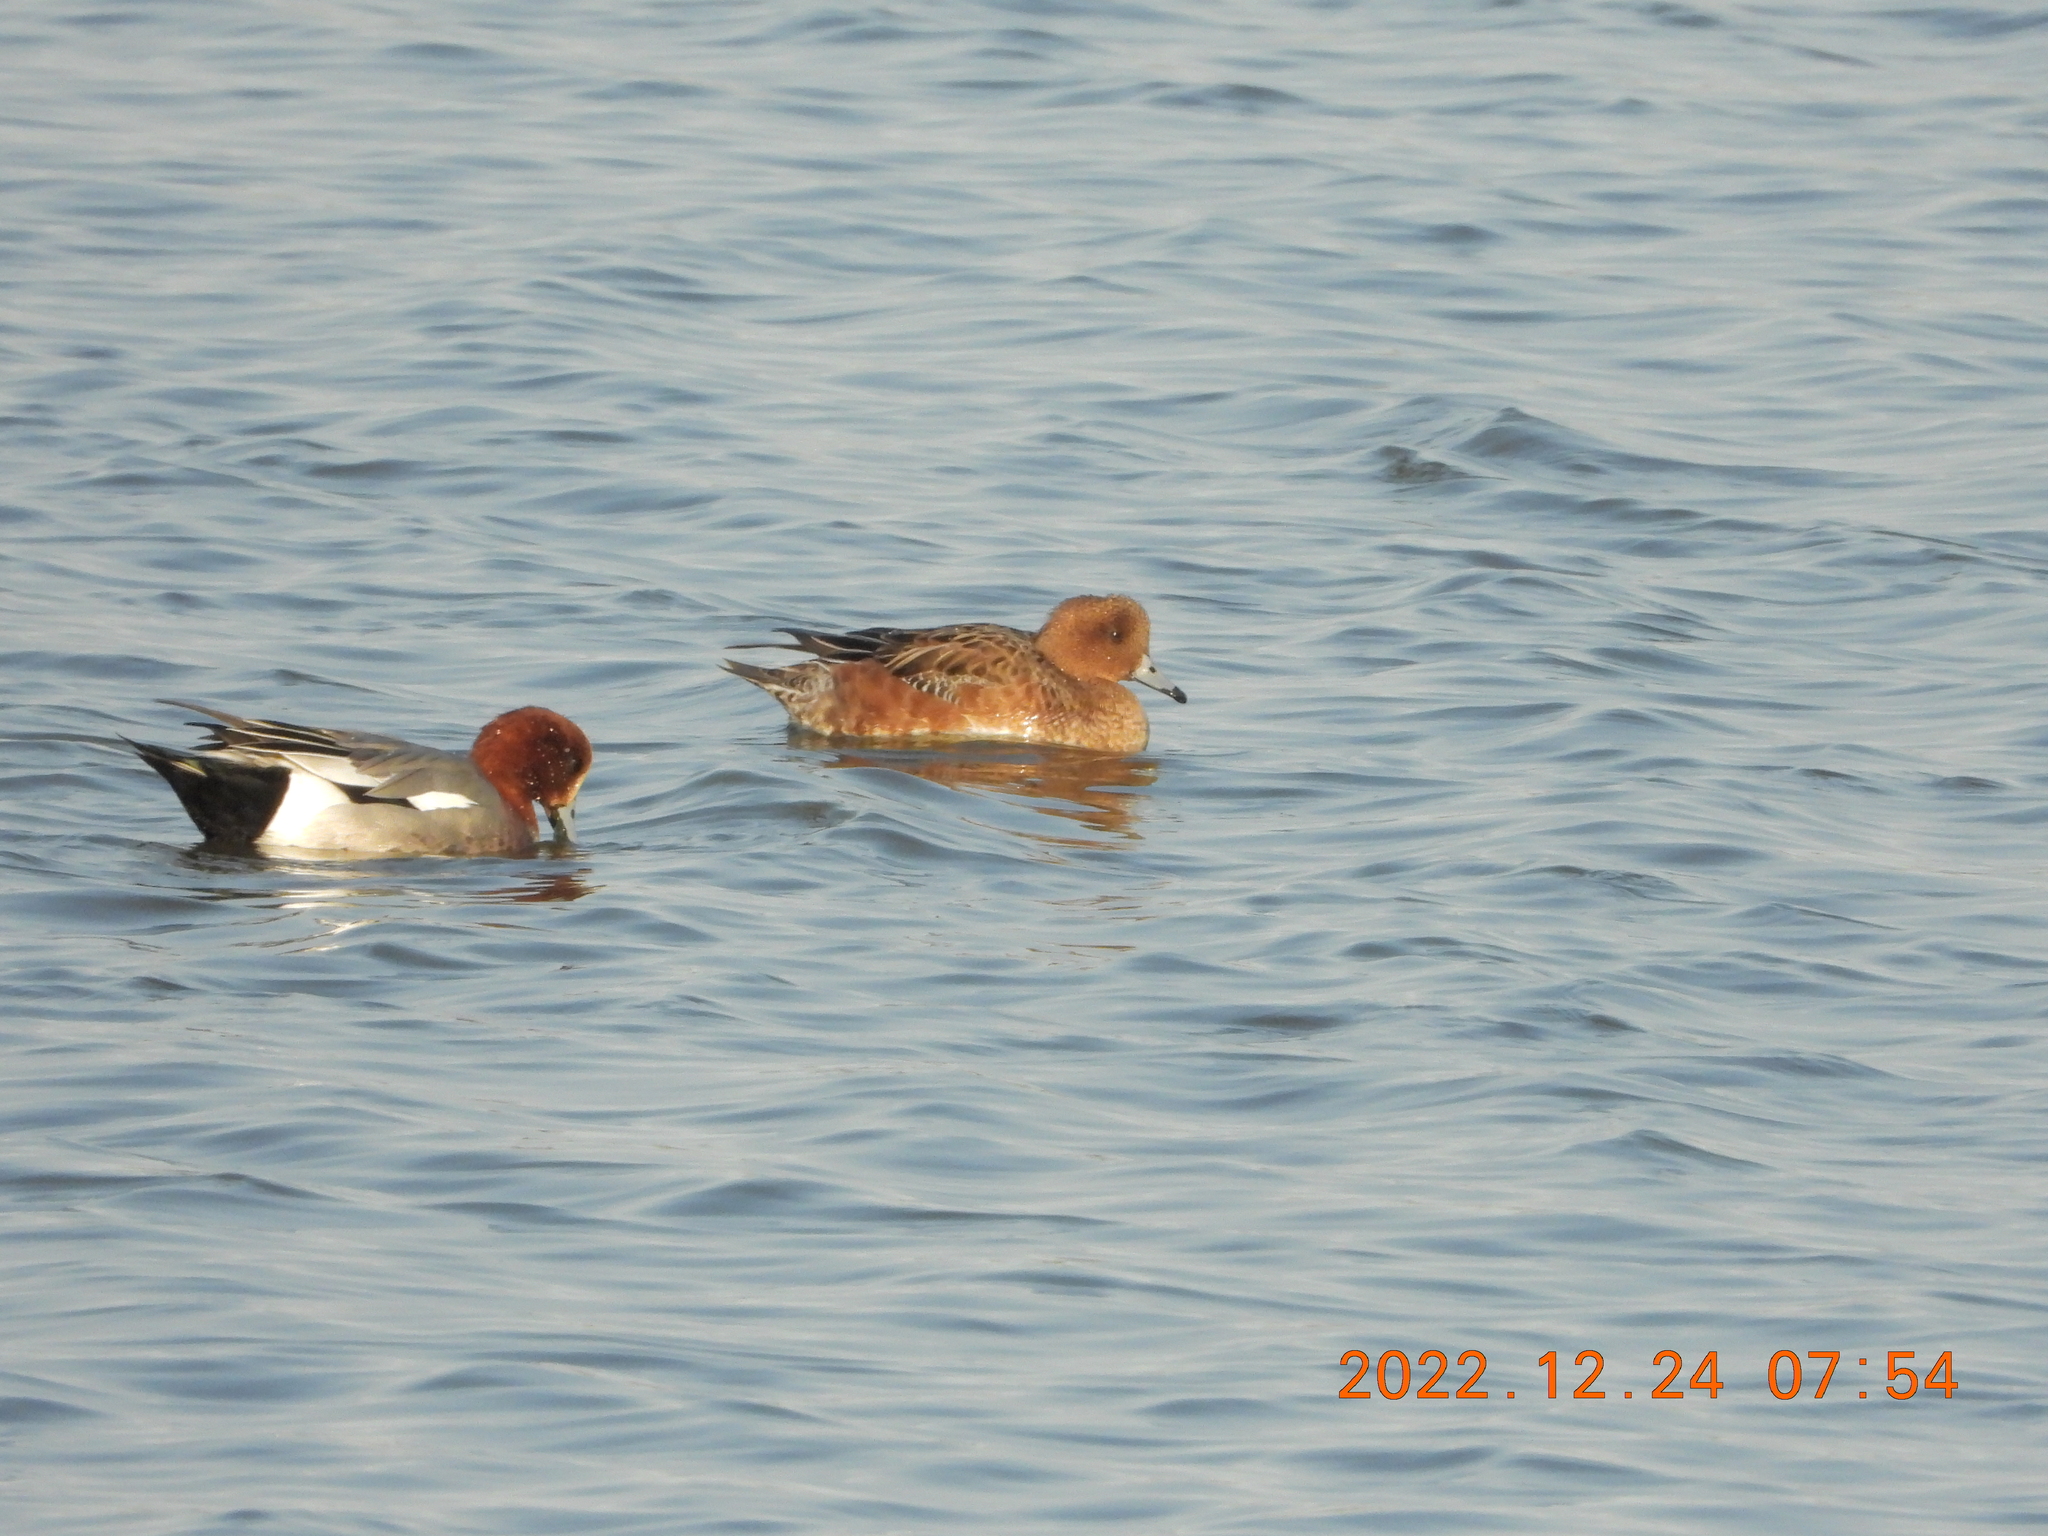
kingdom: Animalia
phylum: Chordata
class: Aves
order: Anseriformes
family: Anatidae
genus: Mareca
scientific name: Mareca penelope
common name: Eurasian wigeon
